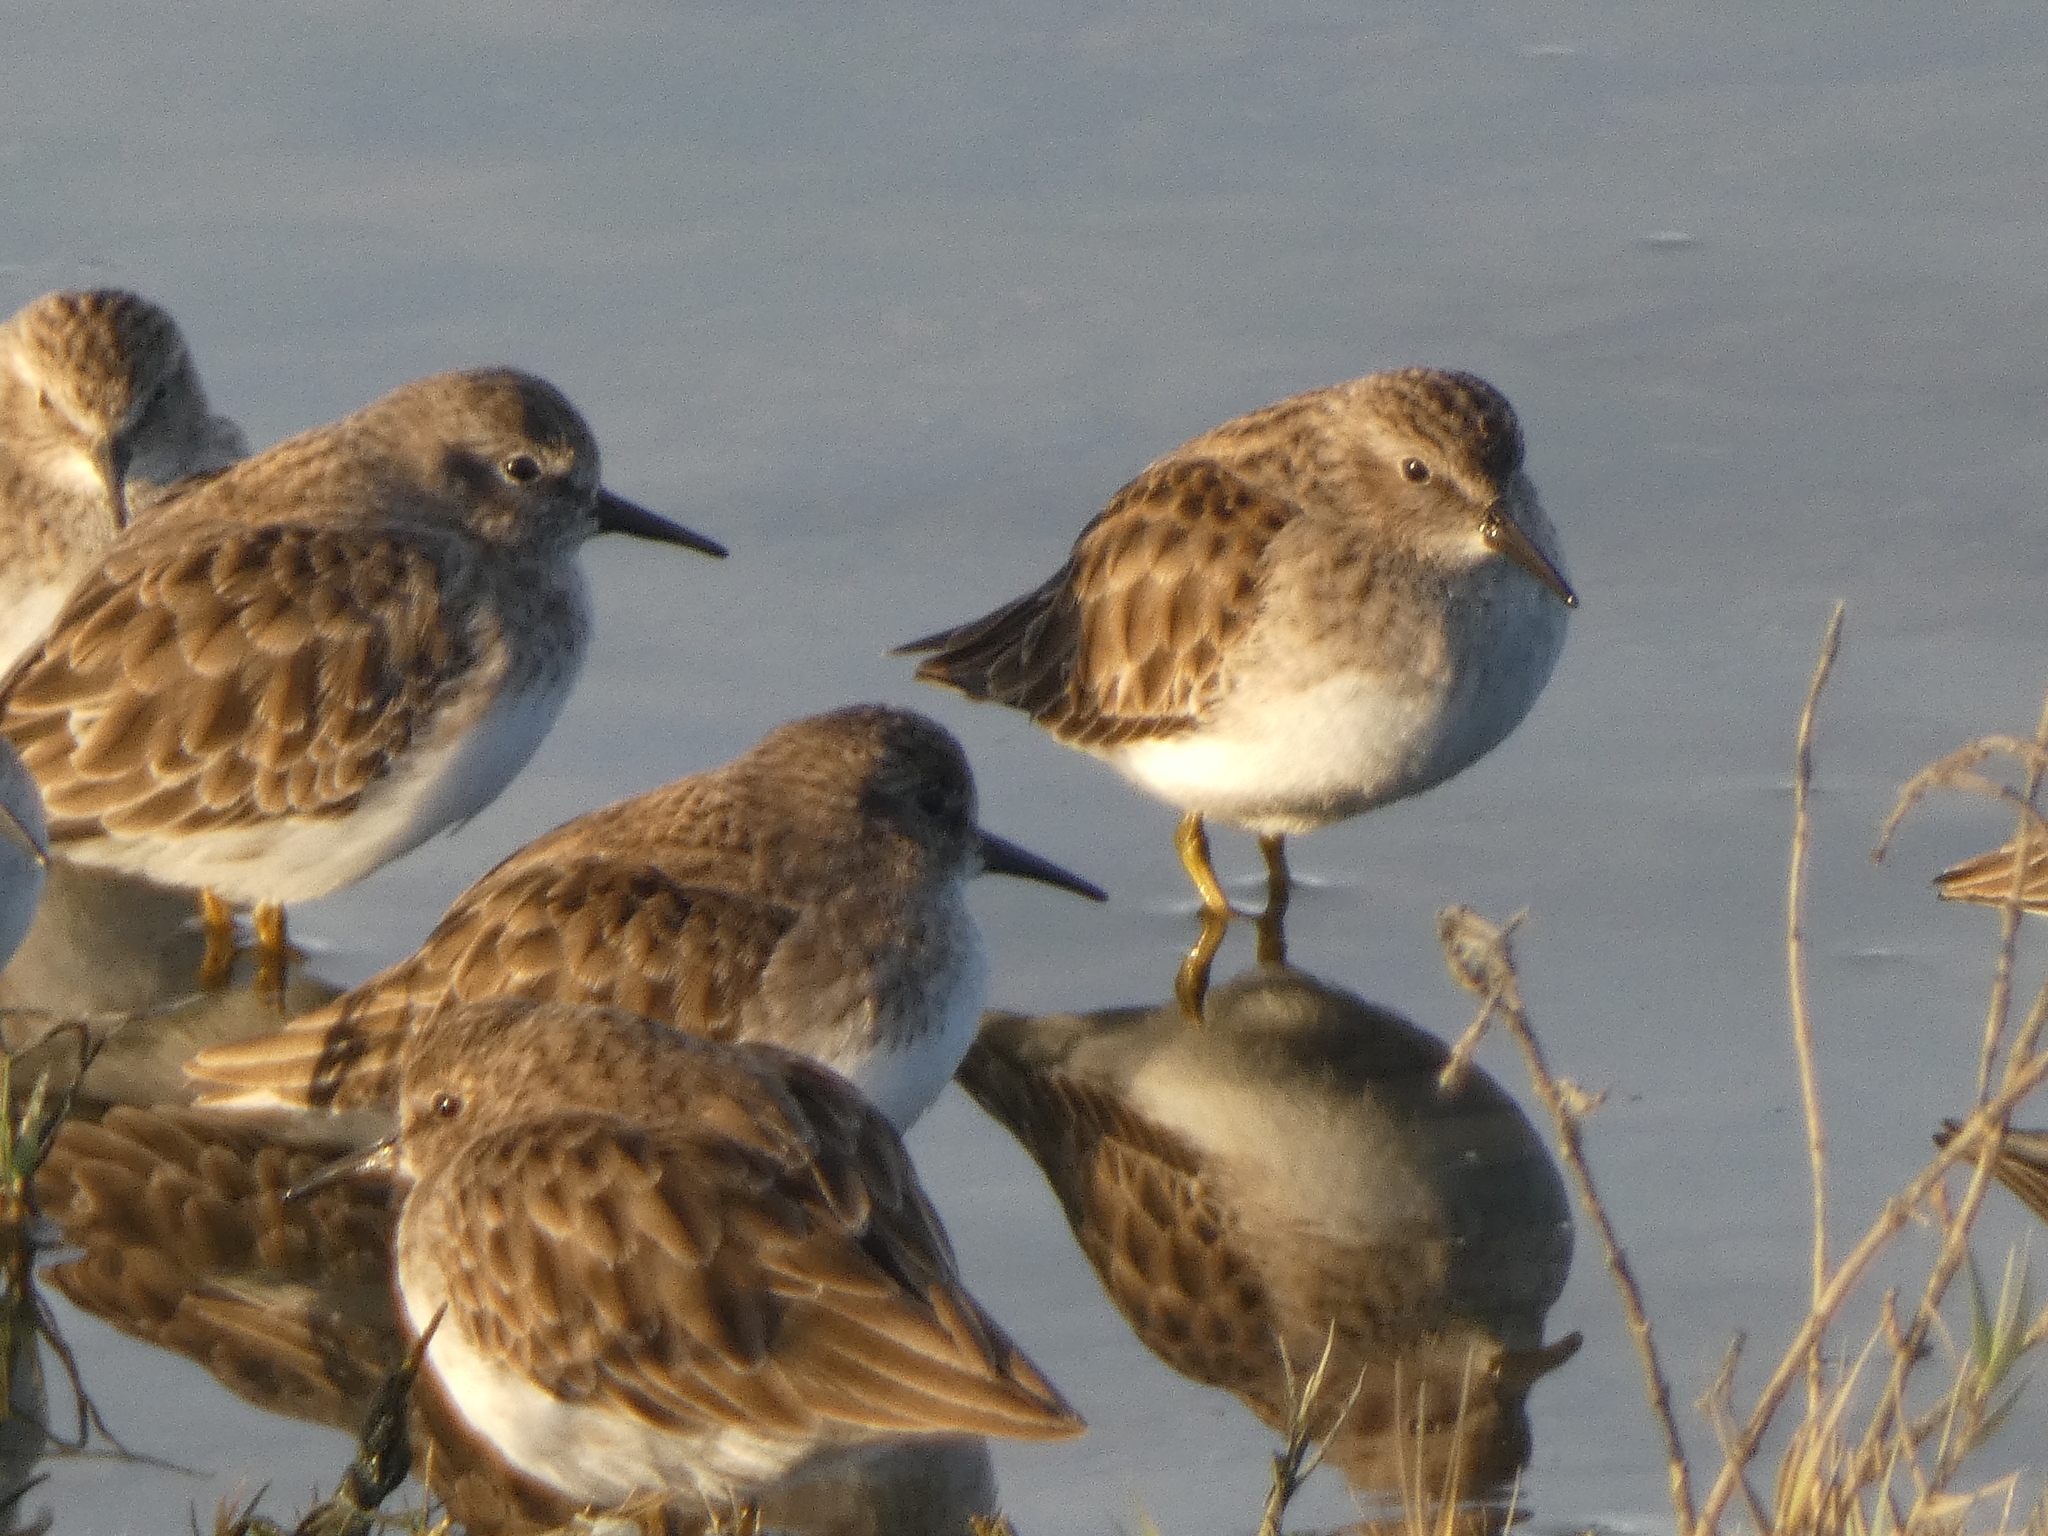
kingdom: Animalia
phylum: Chordata
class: Aves
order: Charadriiformes
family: Scolopacidae
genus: Calidris
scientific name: Calidris minutilla
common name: Least sandpiper
